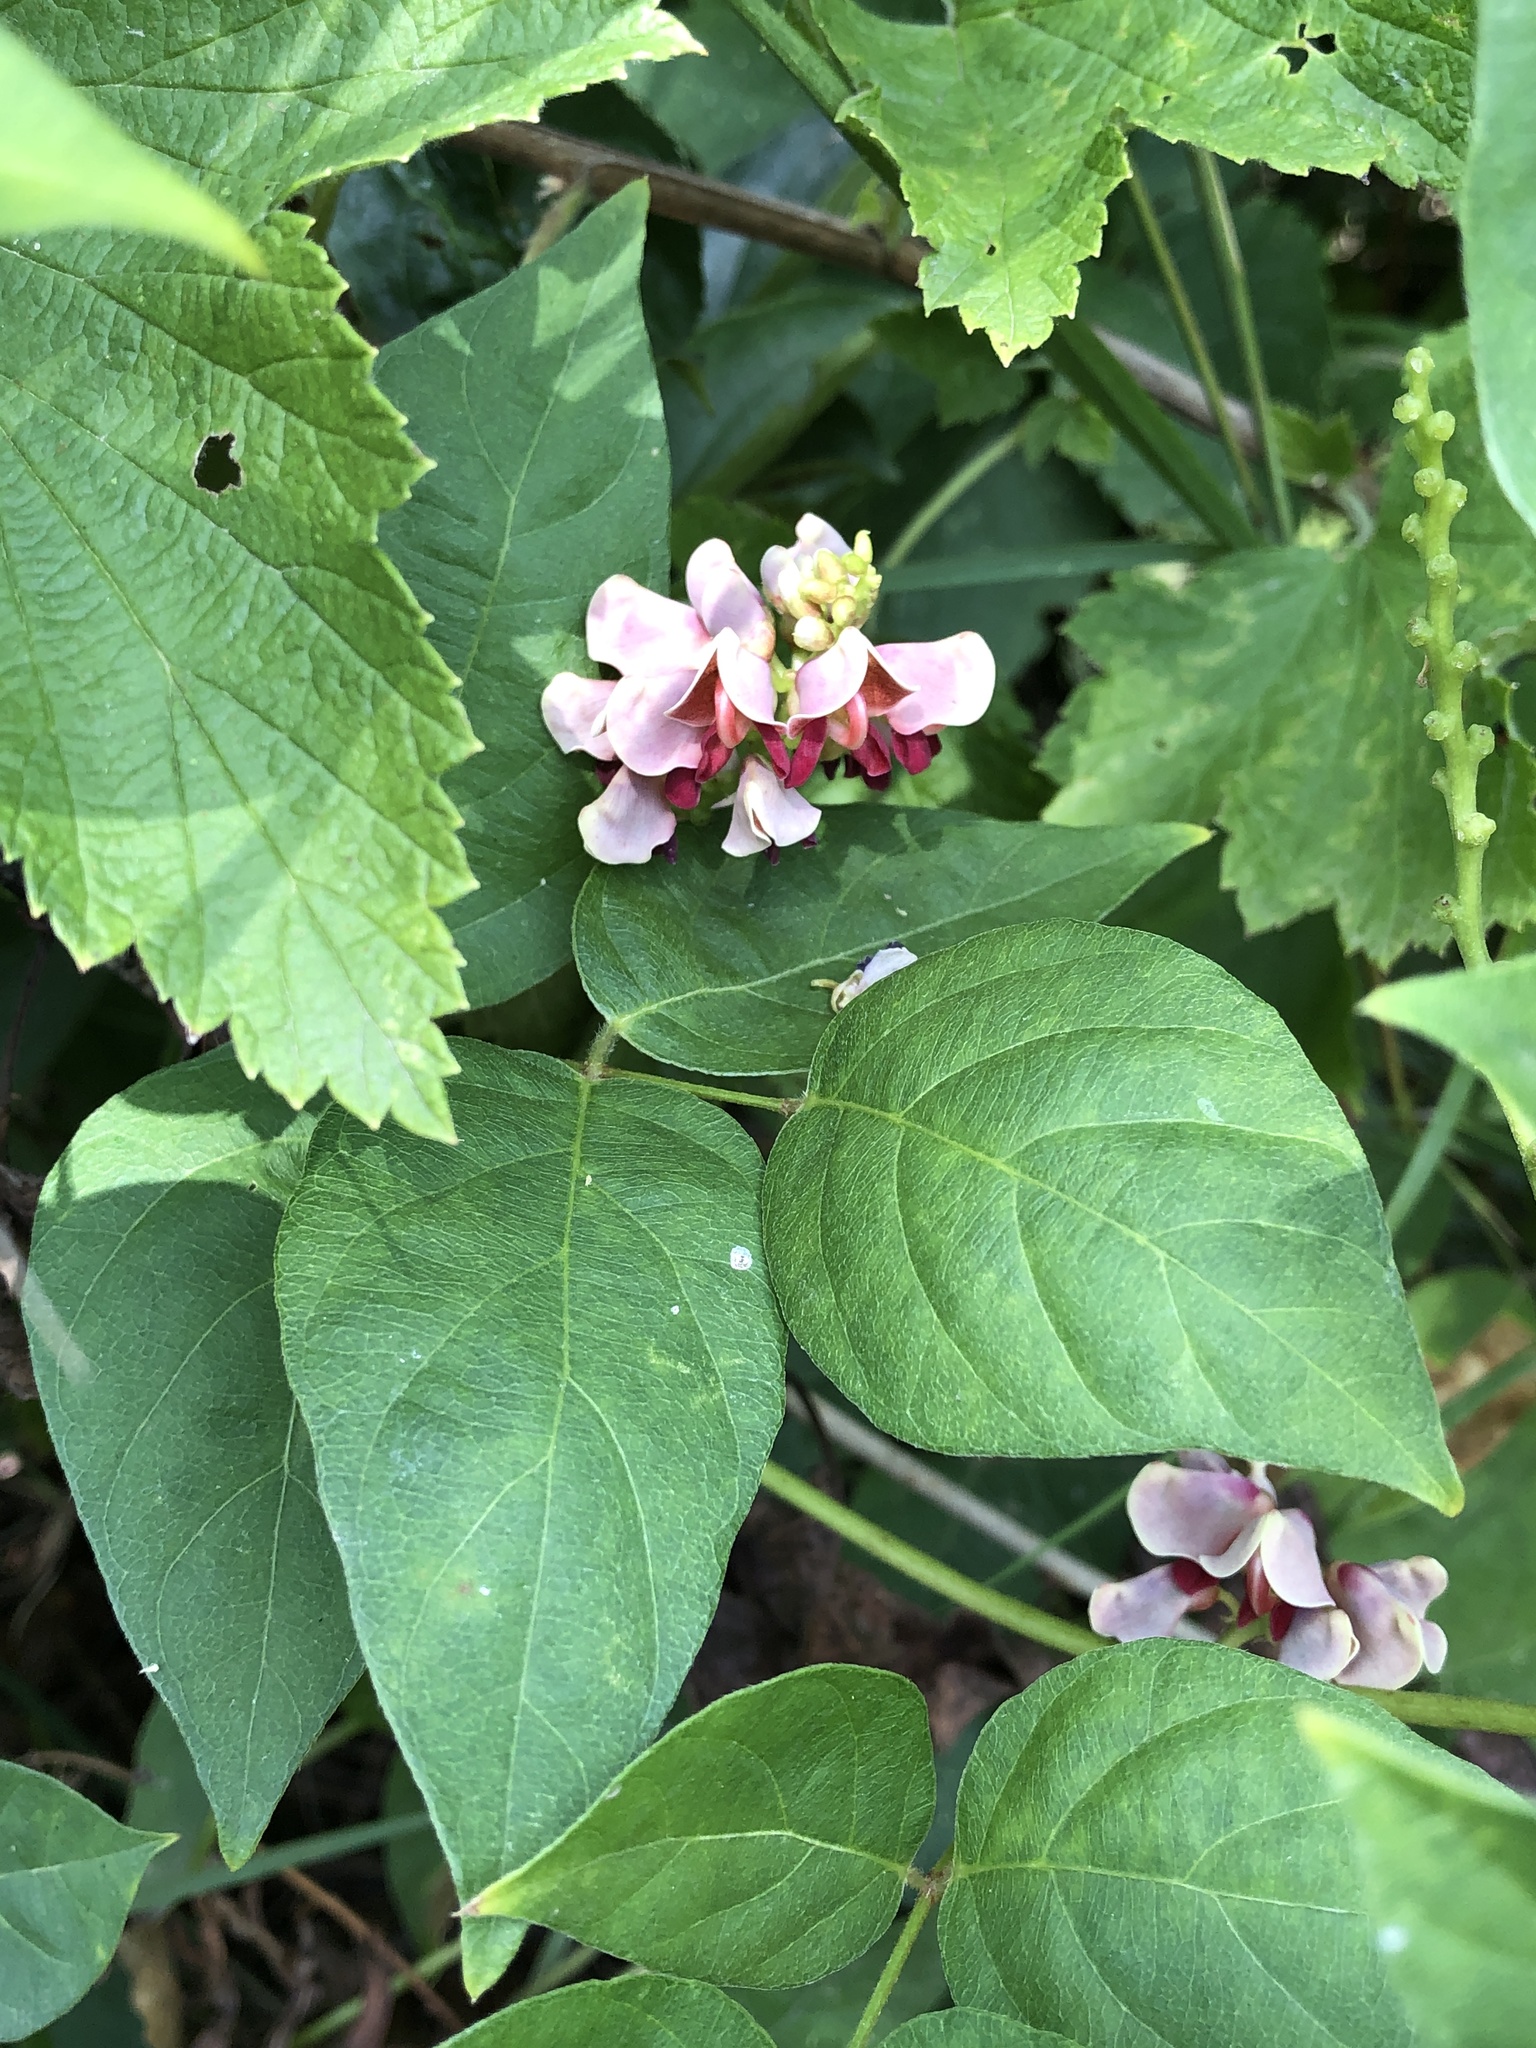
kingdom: Plantae
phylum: Tracheophyta
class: Magnoliopsida
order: Fabales
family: Fabaceae
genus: Apios
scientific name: Apios americana
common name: American potato-bean
